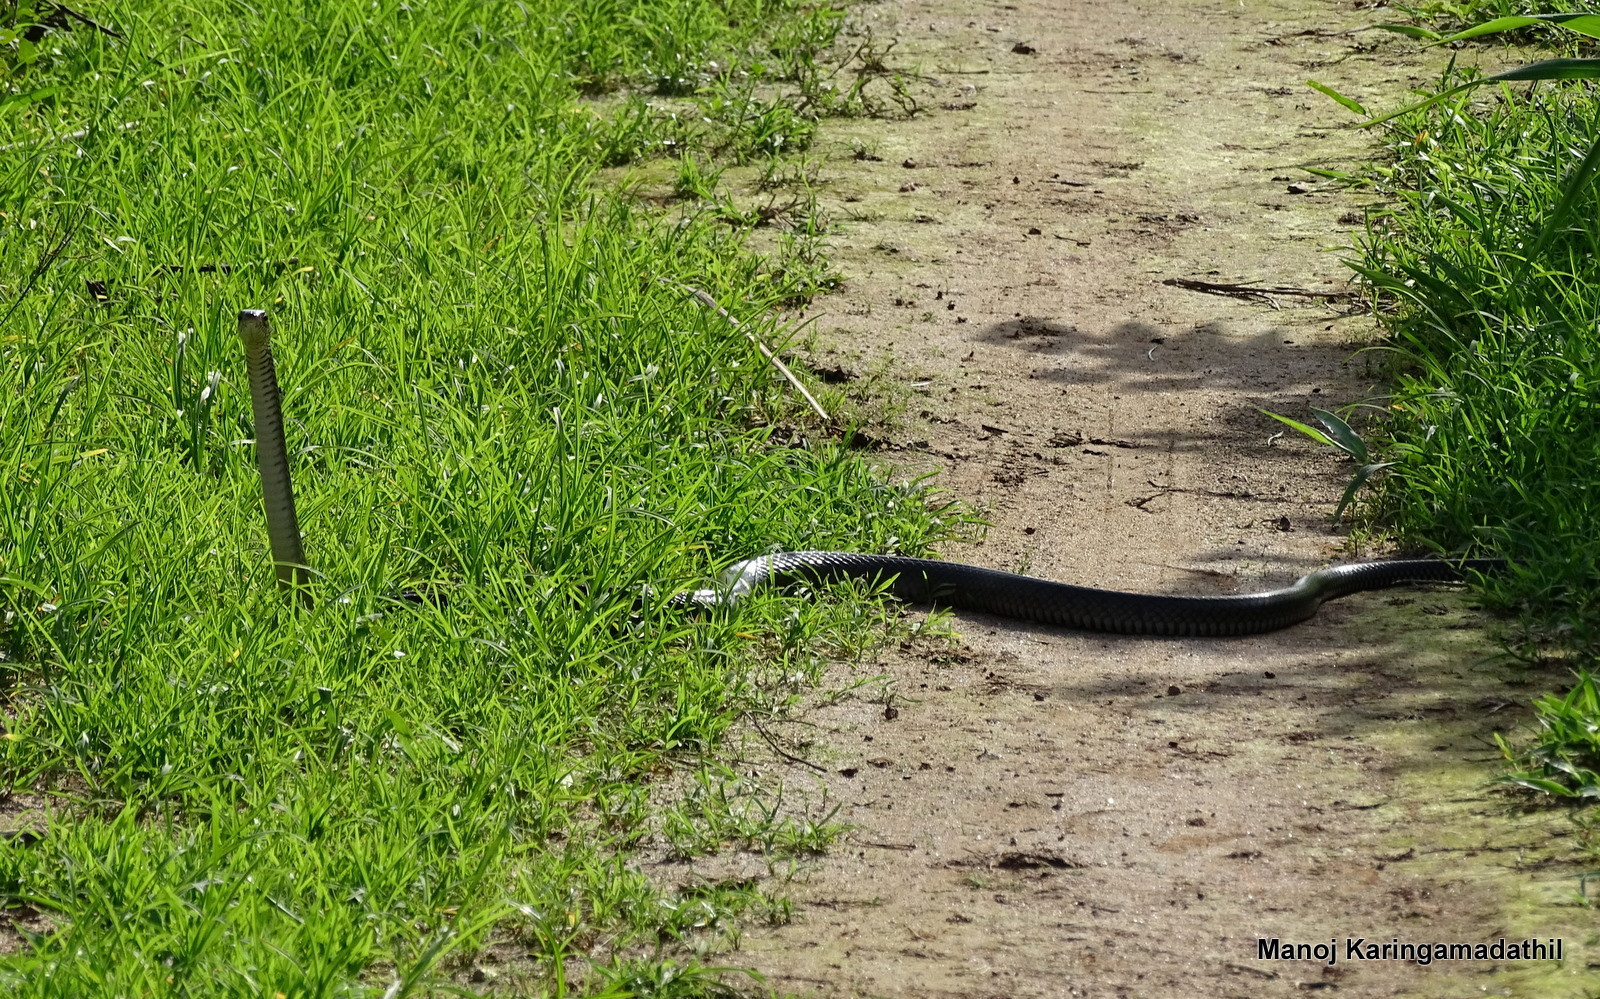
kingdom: Animalia
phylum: Chordata
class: Squamata
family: Colubridae
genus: Ptyas
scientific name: Ptyas mucosa
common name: Oriental ratsnake
